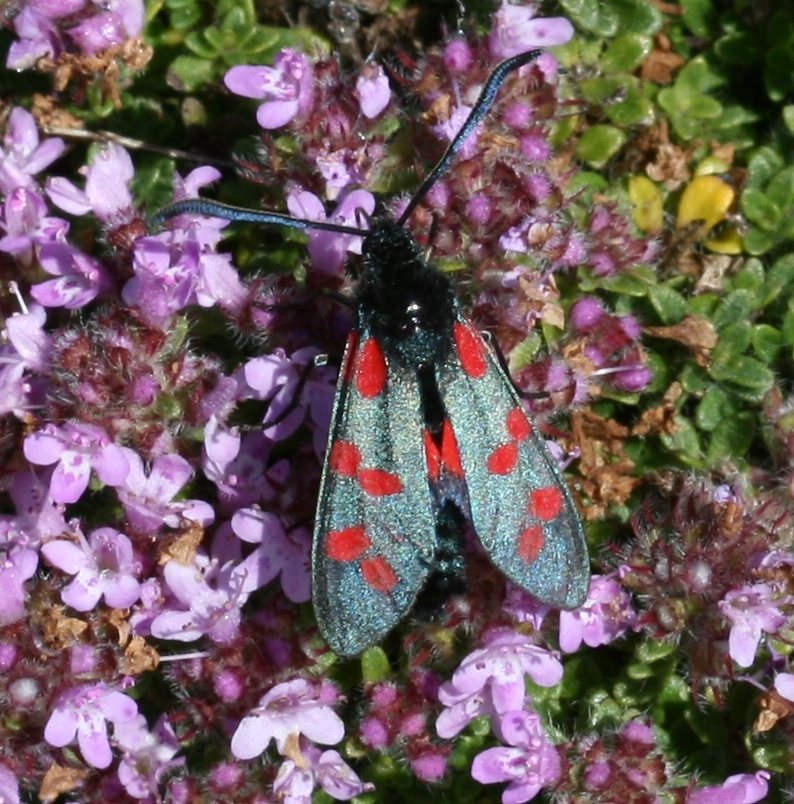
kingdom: Animalia
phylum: Arthropoda
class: Insecta
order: Lepidoptera
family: Zygaenidae
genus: Zygaena
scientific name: Zygaena filipendulae
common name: Six-spot burnet
